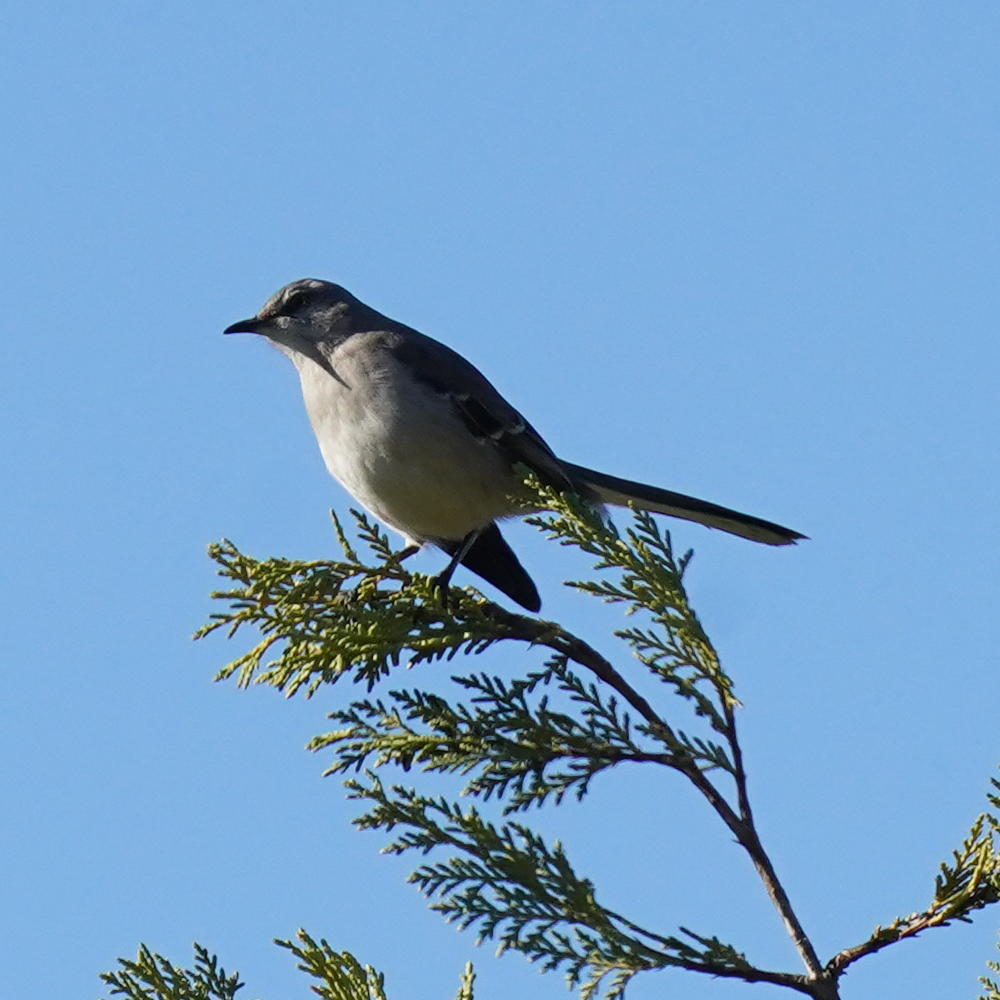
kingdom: Animalia
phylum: Chordata
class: Aves
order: Passeriformes
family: Mimidae
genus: Mimus
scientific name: Mimus polyglottos
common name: Northern mockingbird
